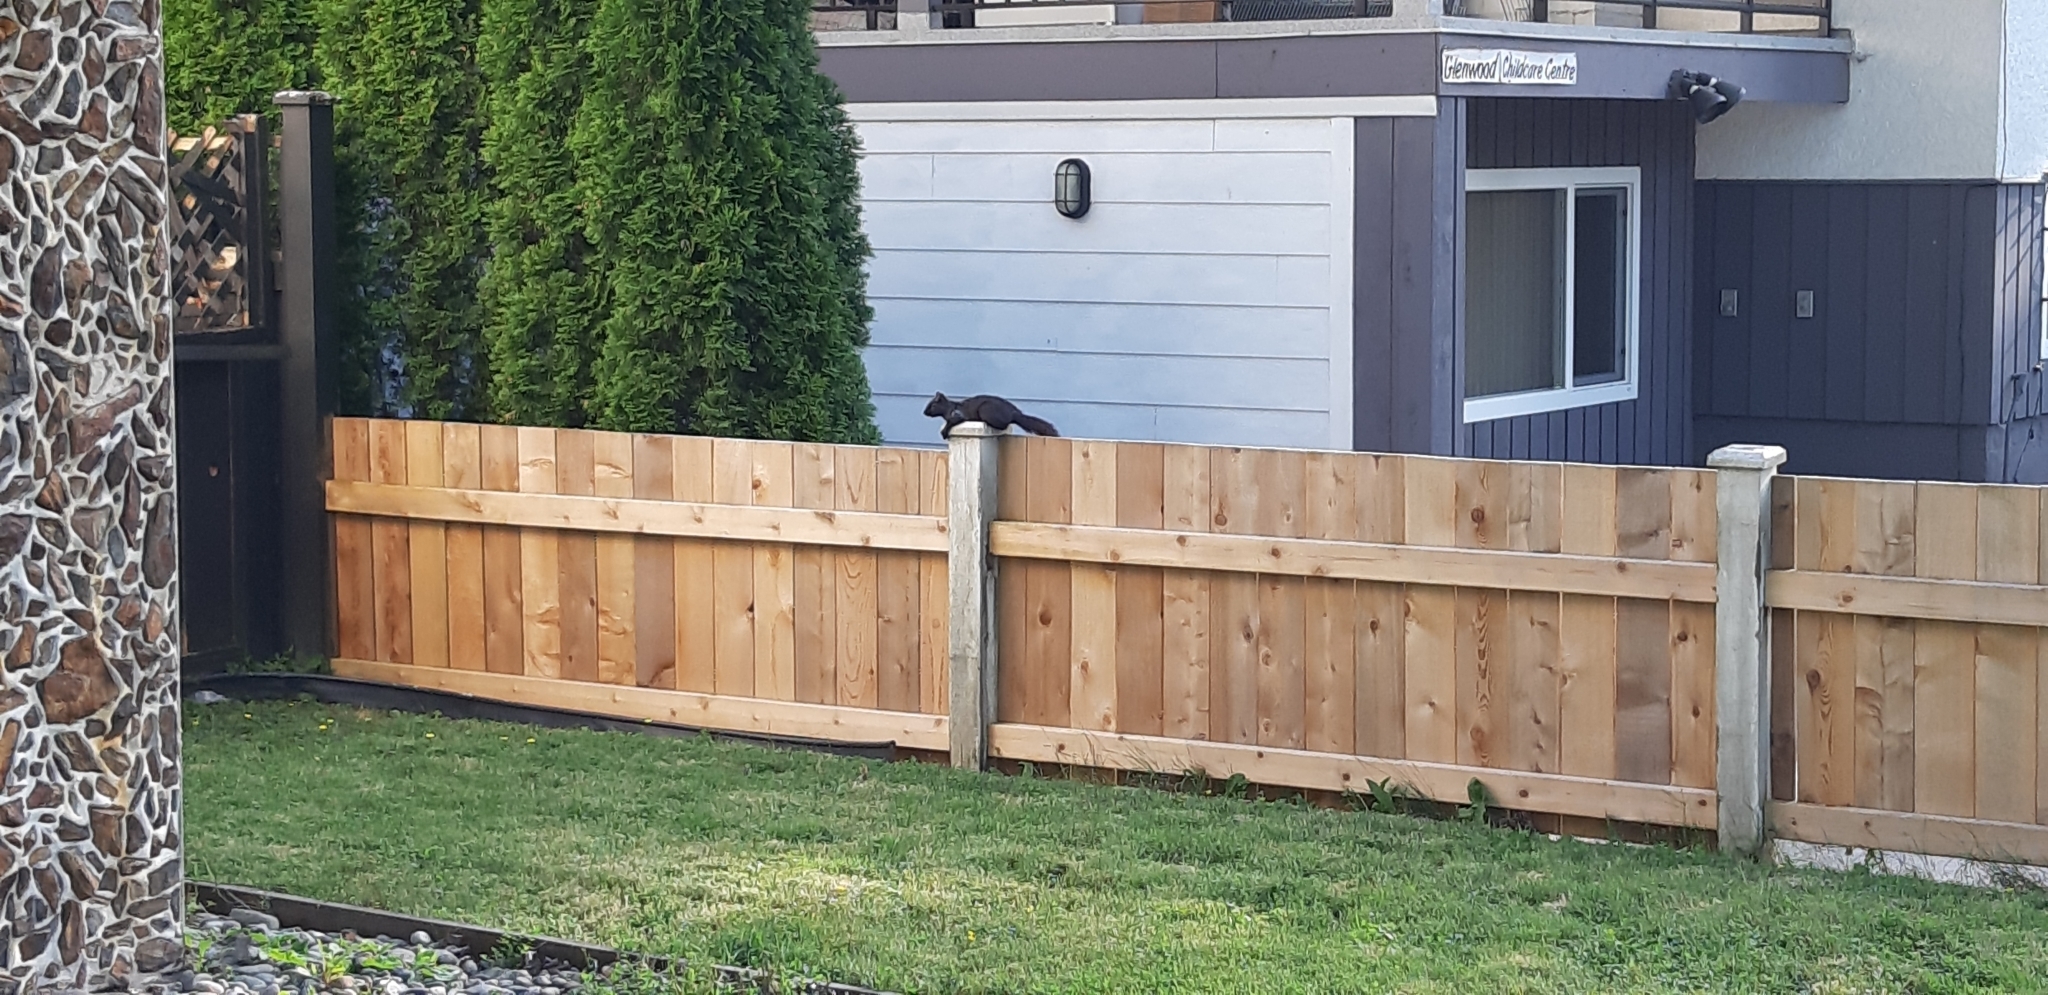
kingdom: Animalia
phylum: Chordata
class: Mammalia
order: Rodentia
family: Sciuridae
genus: Sciurus
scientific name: Sciurus carolinensis
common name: Eastern gray squirrel
